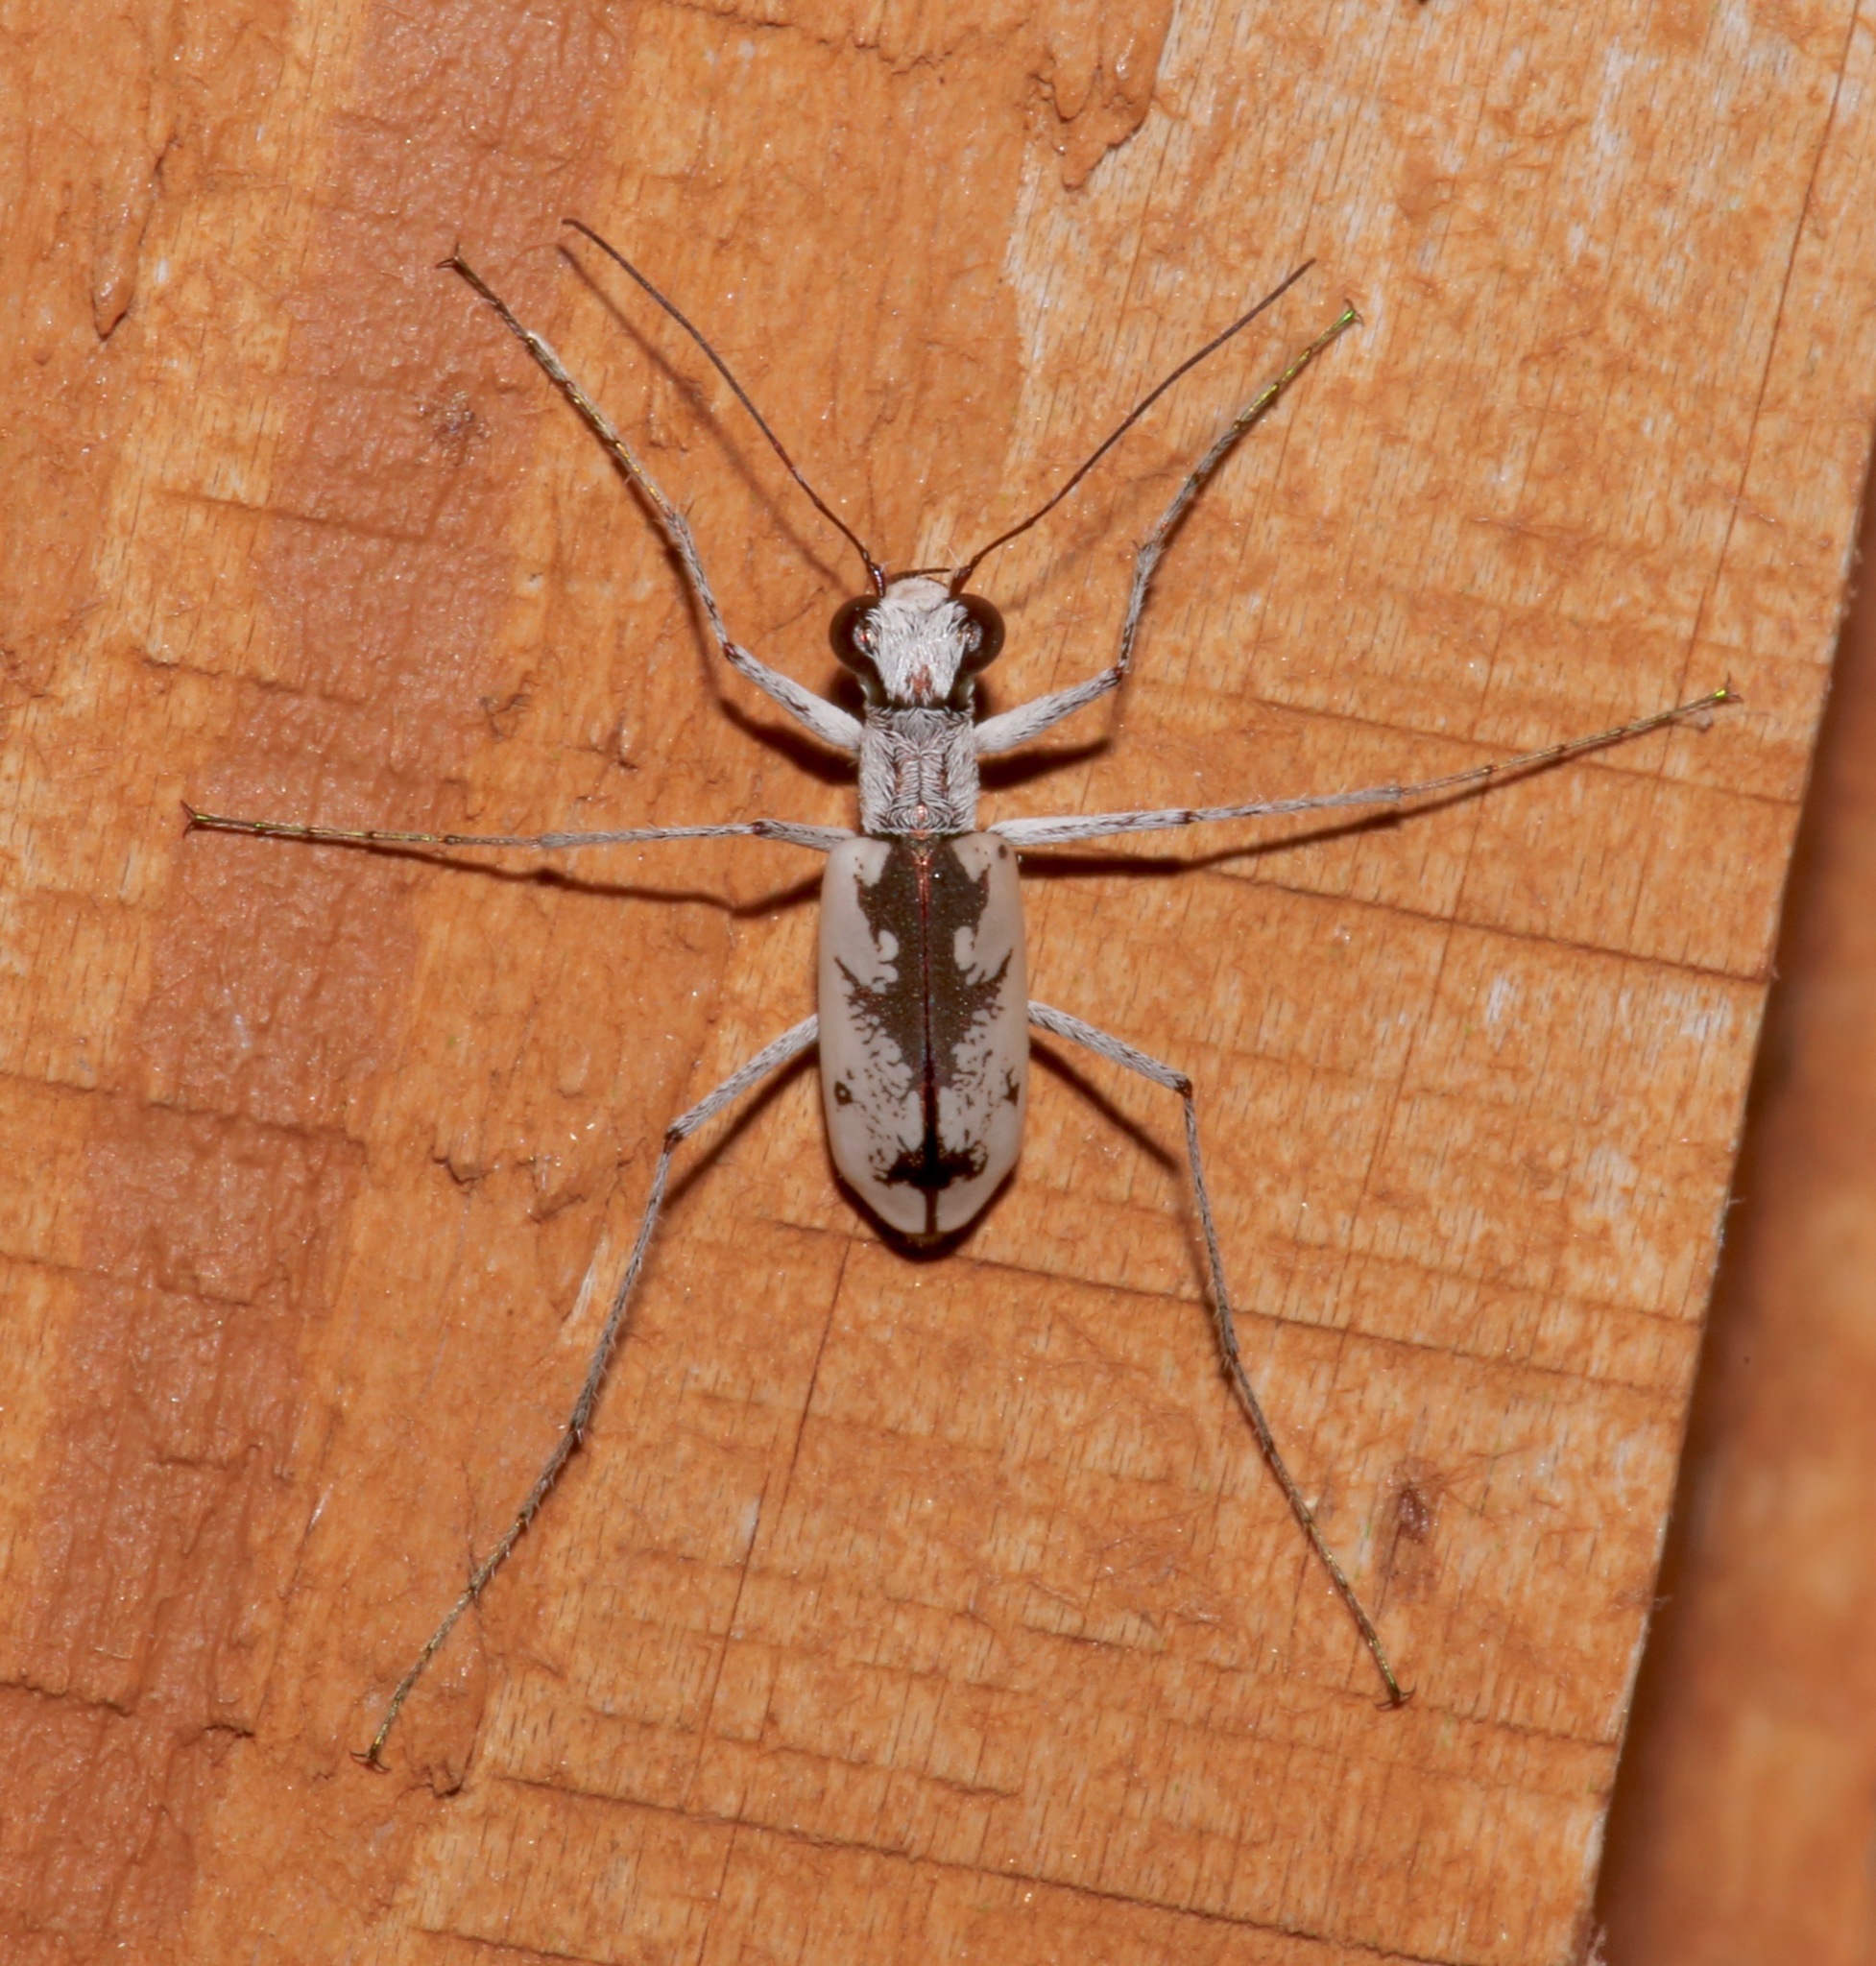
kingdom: Animalia
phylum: Arthropoda
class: Insecta
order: Coleoptera
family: Carabidae
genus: Ellipsoptera
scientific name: Ellipsoptera hirtilabris
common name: Moustached tiger beetle
